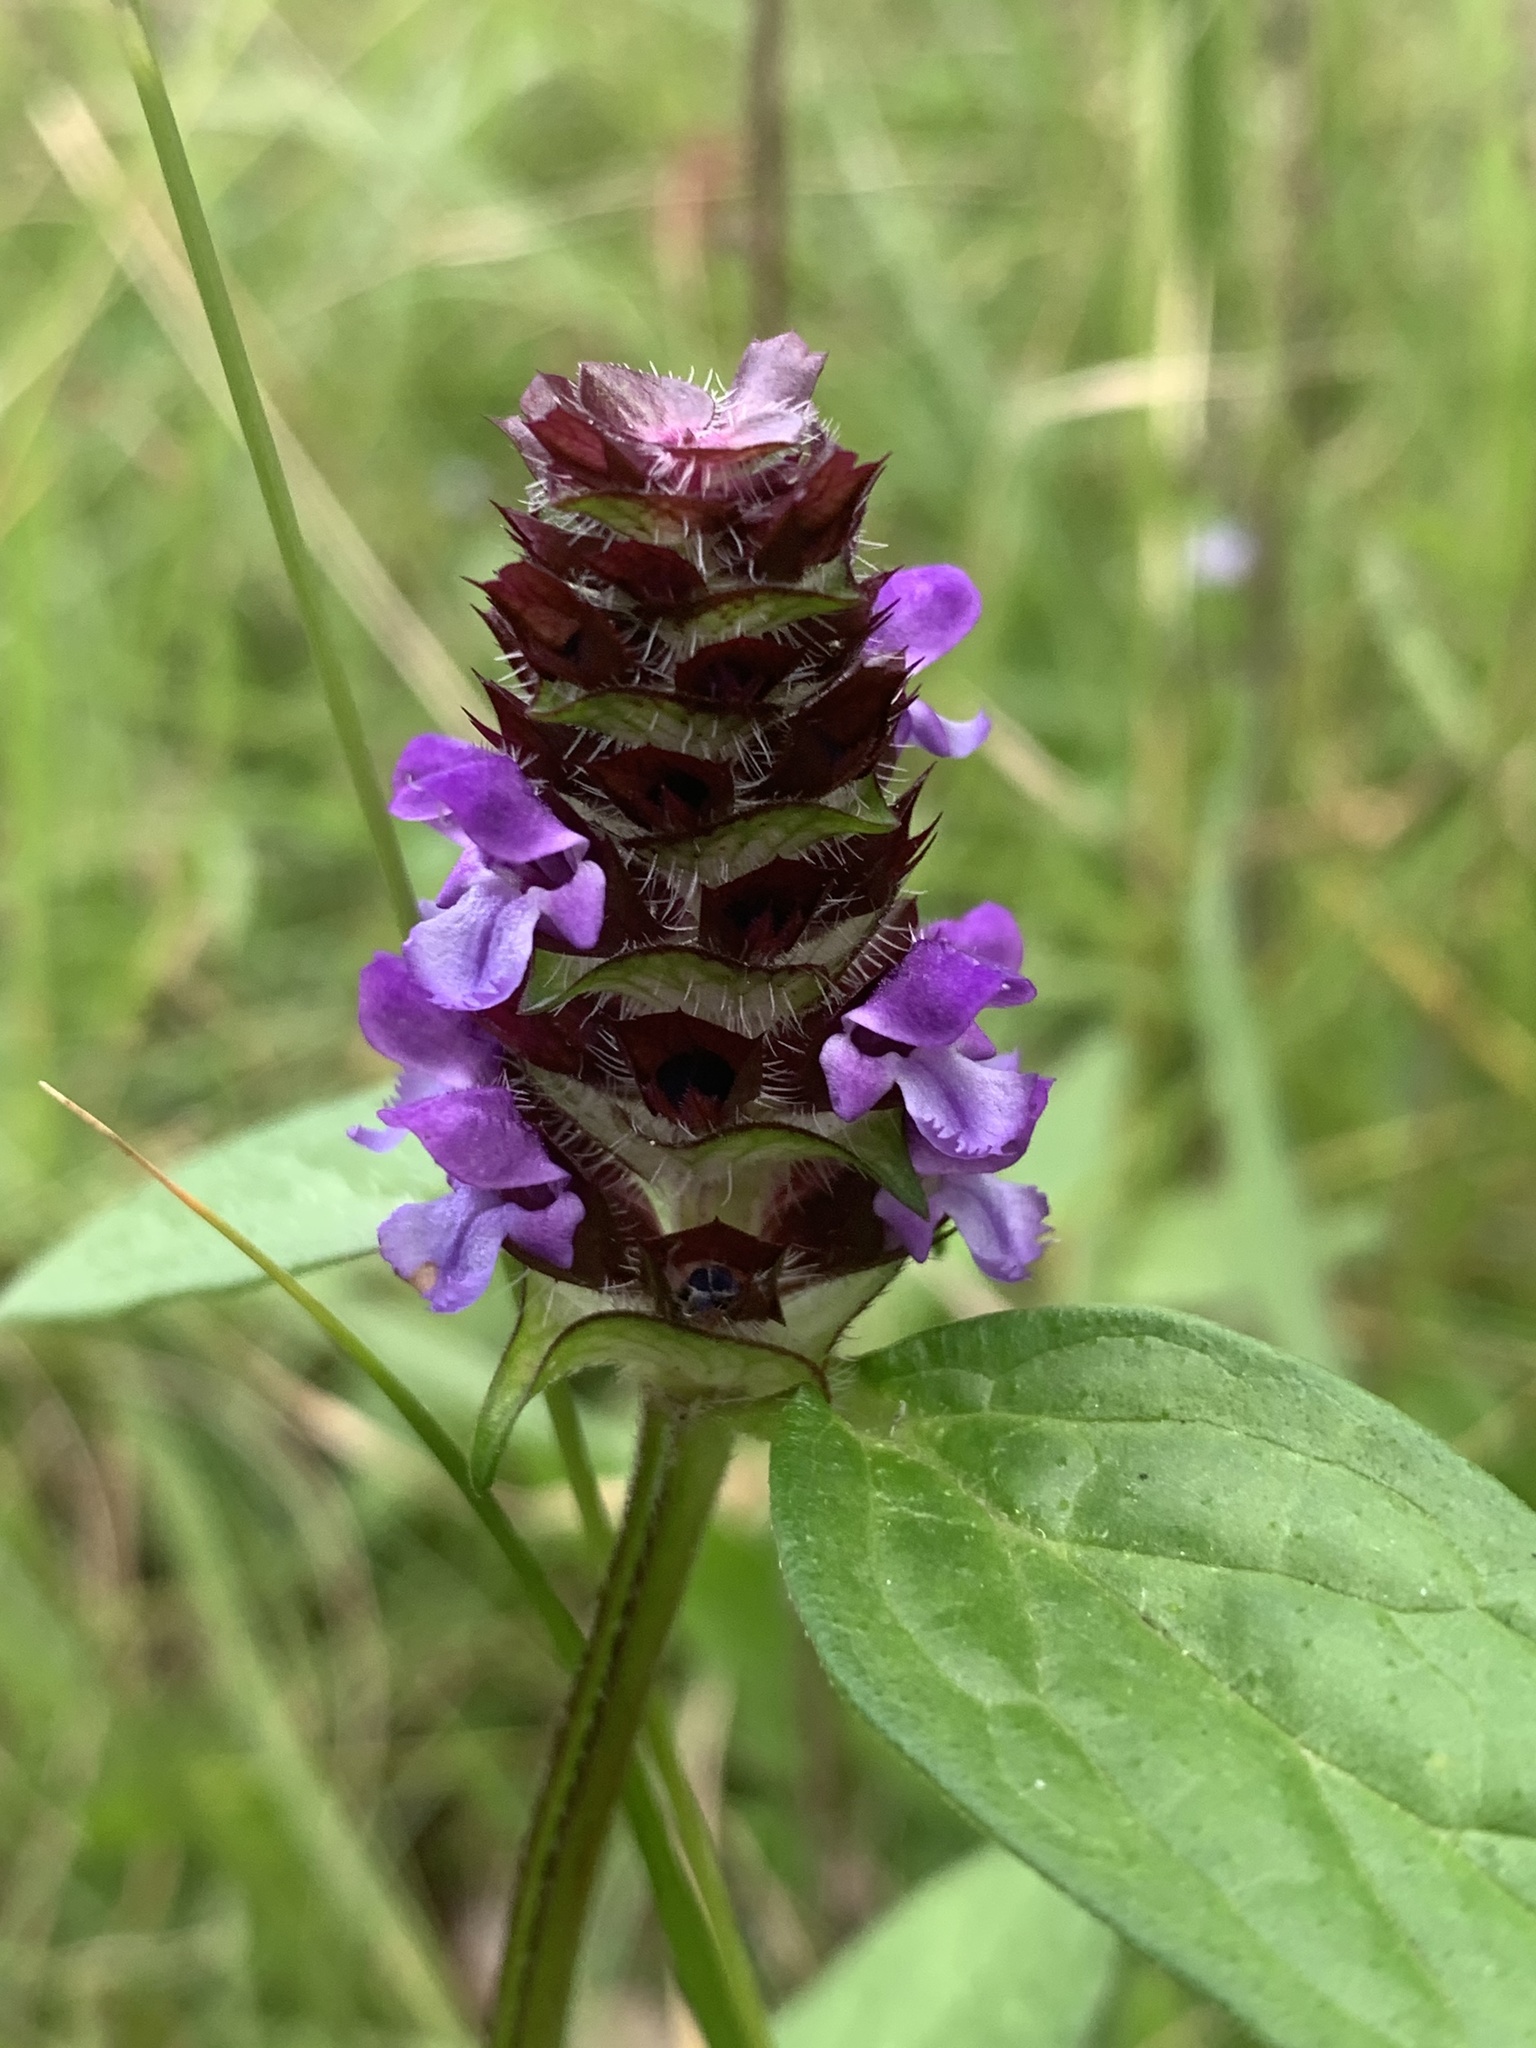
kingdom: Plantae
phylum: Tracheophyta
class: Magnoliopsida
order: Lamiales
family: Lamiaceae
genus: Prunella
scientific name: Prunella vulgaris
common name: Heal-all
